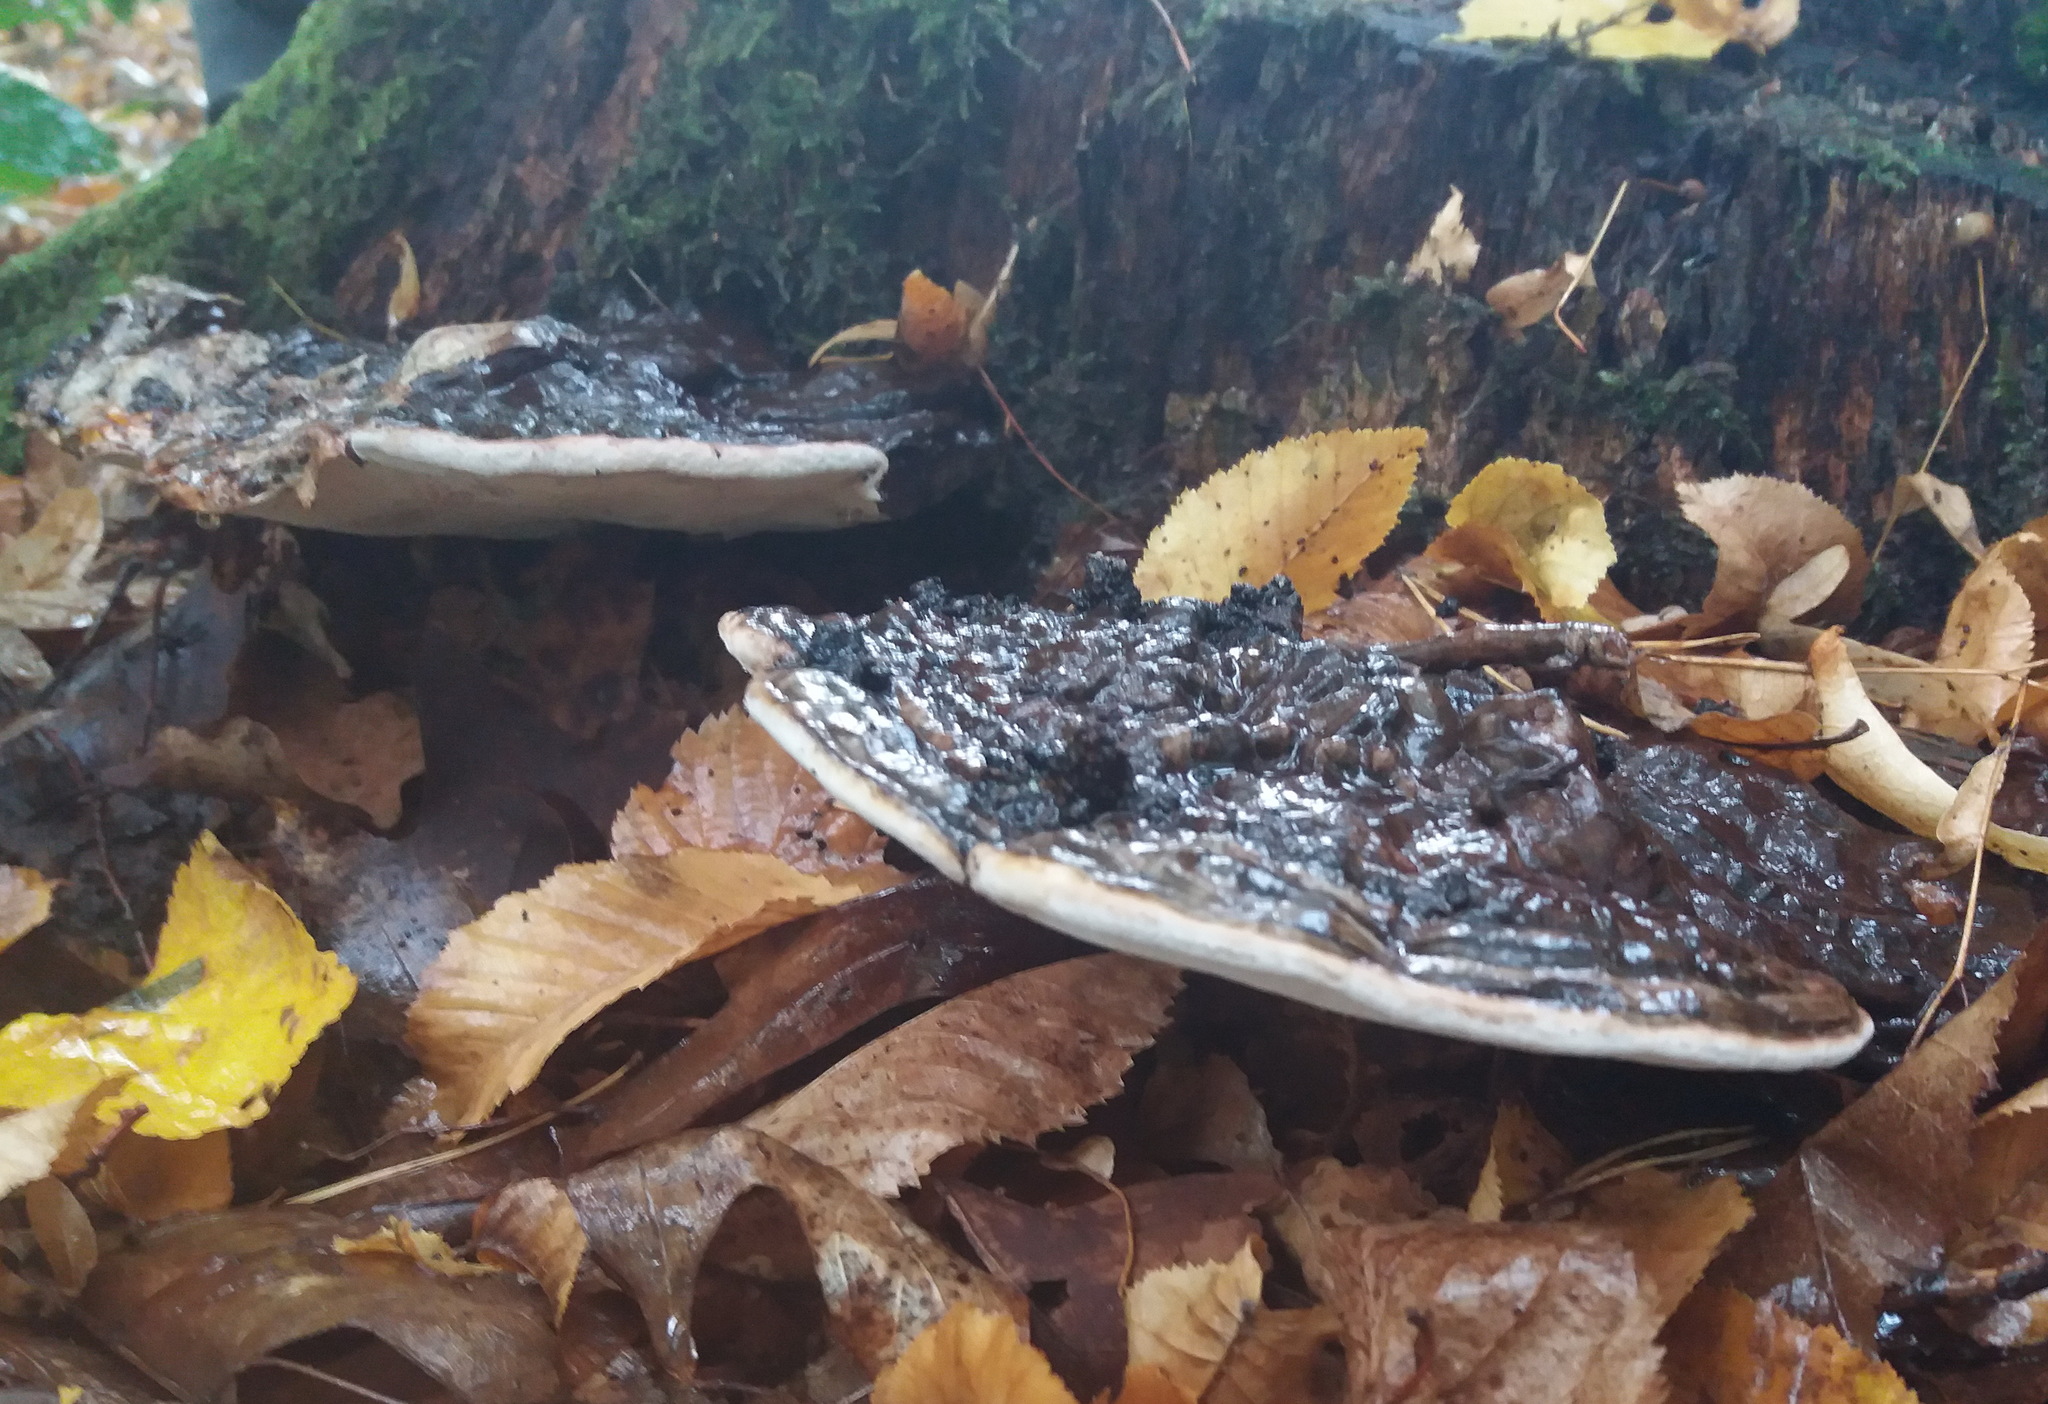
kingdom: Fungi
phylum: Basidiomycota
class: Agaricomycetes
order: Polyporales
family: Polyporaceae
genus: Ganoderma
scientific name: Ganoderma applanatum
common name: Artist's bracket
